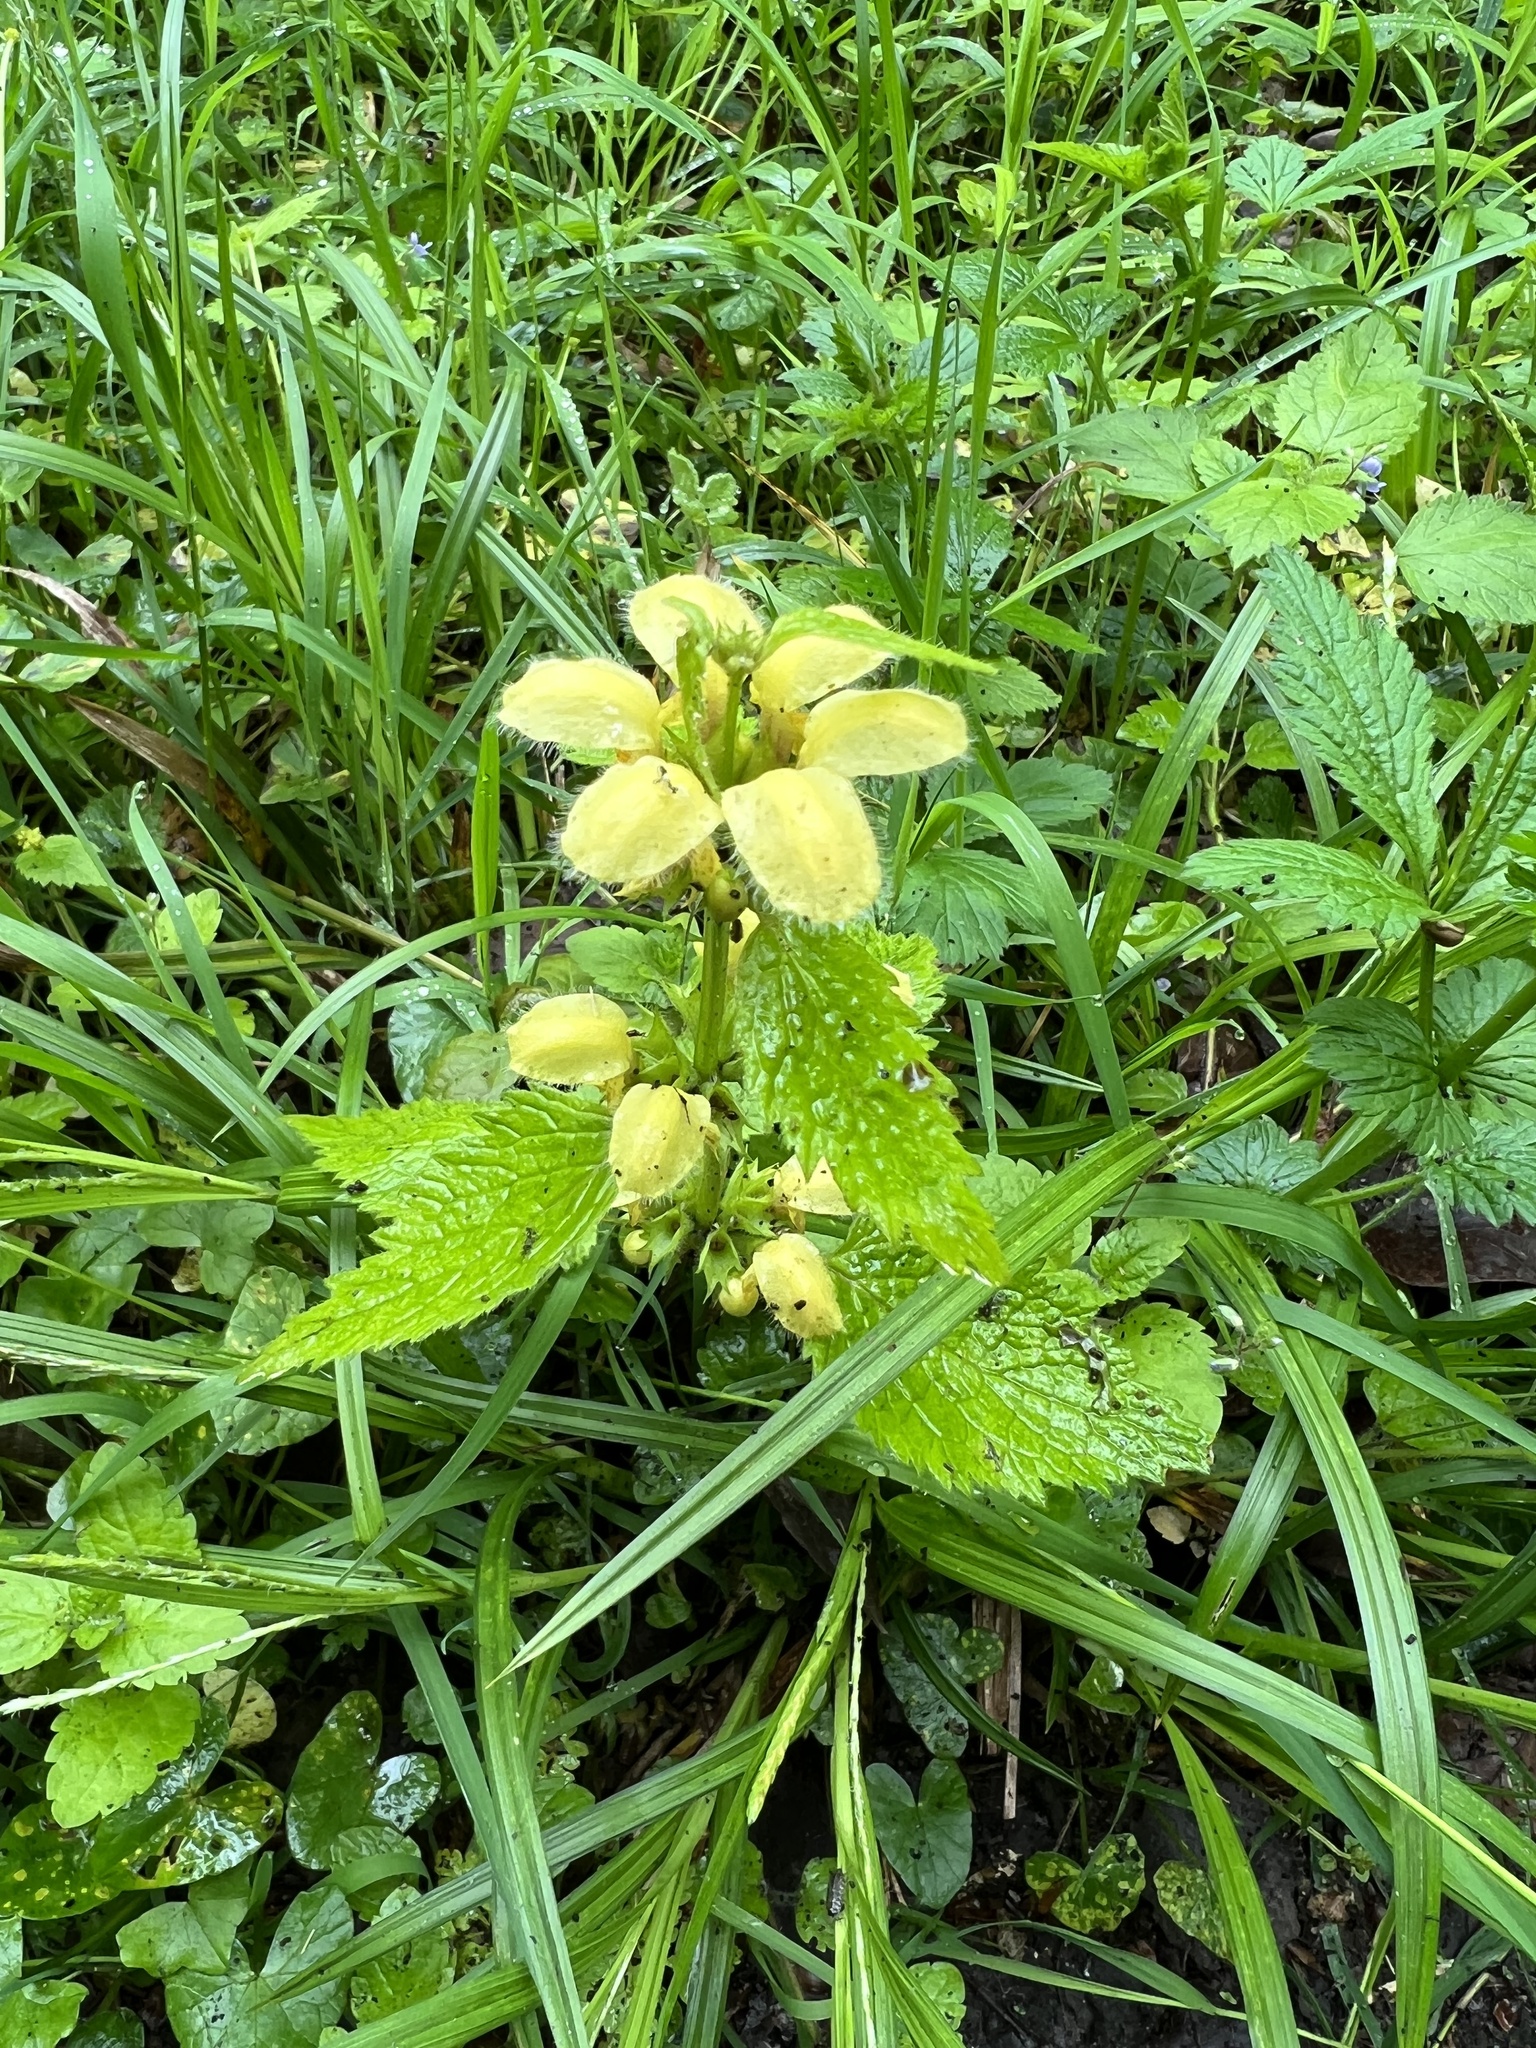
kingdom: Plantae
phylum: Tracheophyta
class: Magnoliopsida
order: Lamiales
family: Lamiaceae
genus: Lamium
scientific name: Lamium galeobdolon
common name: Yellow archangel
